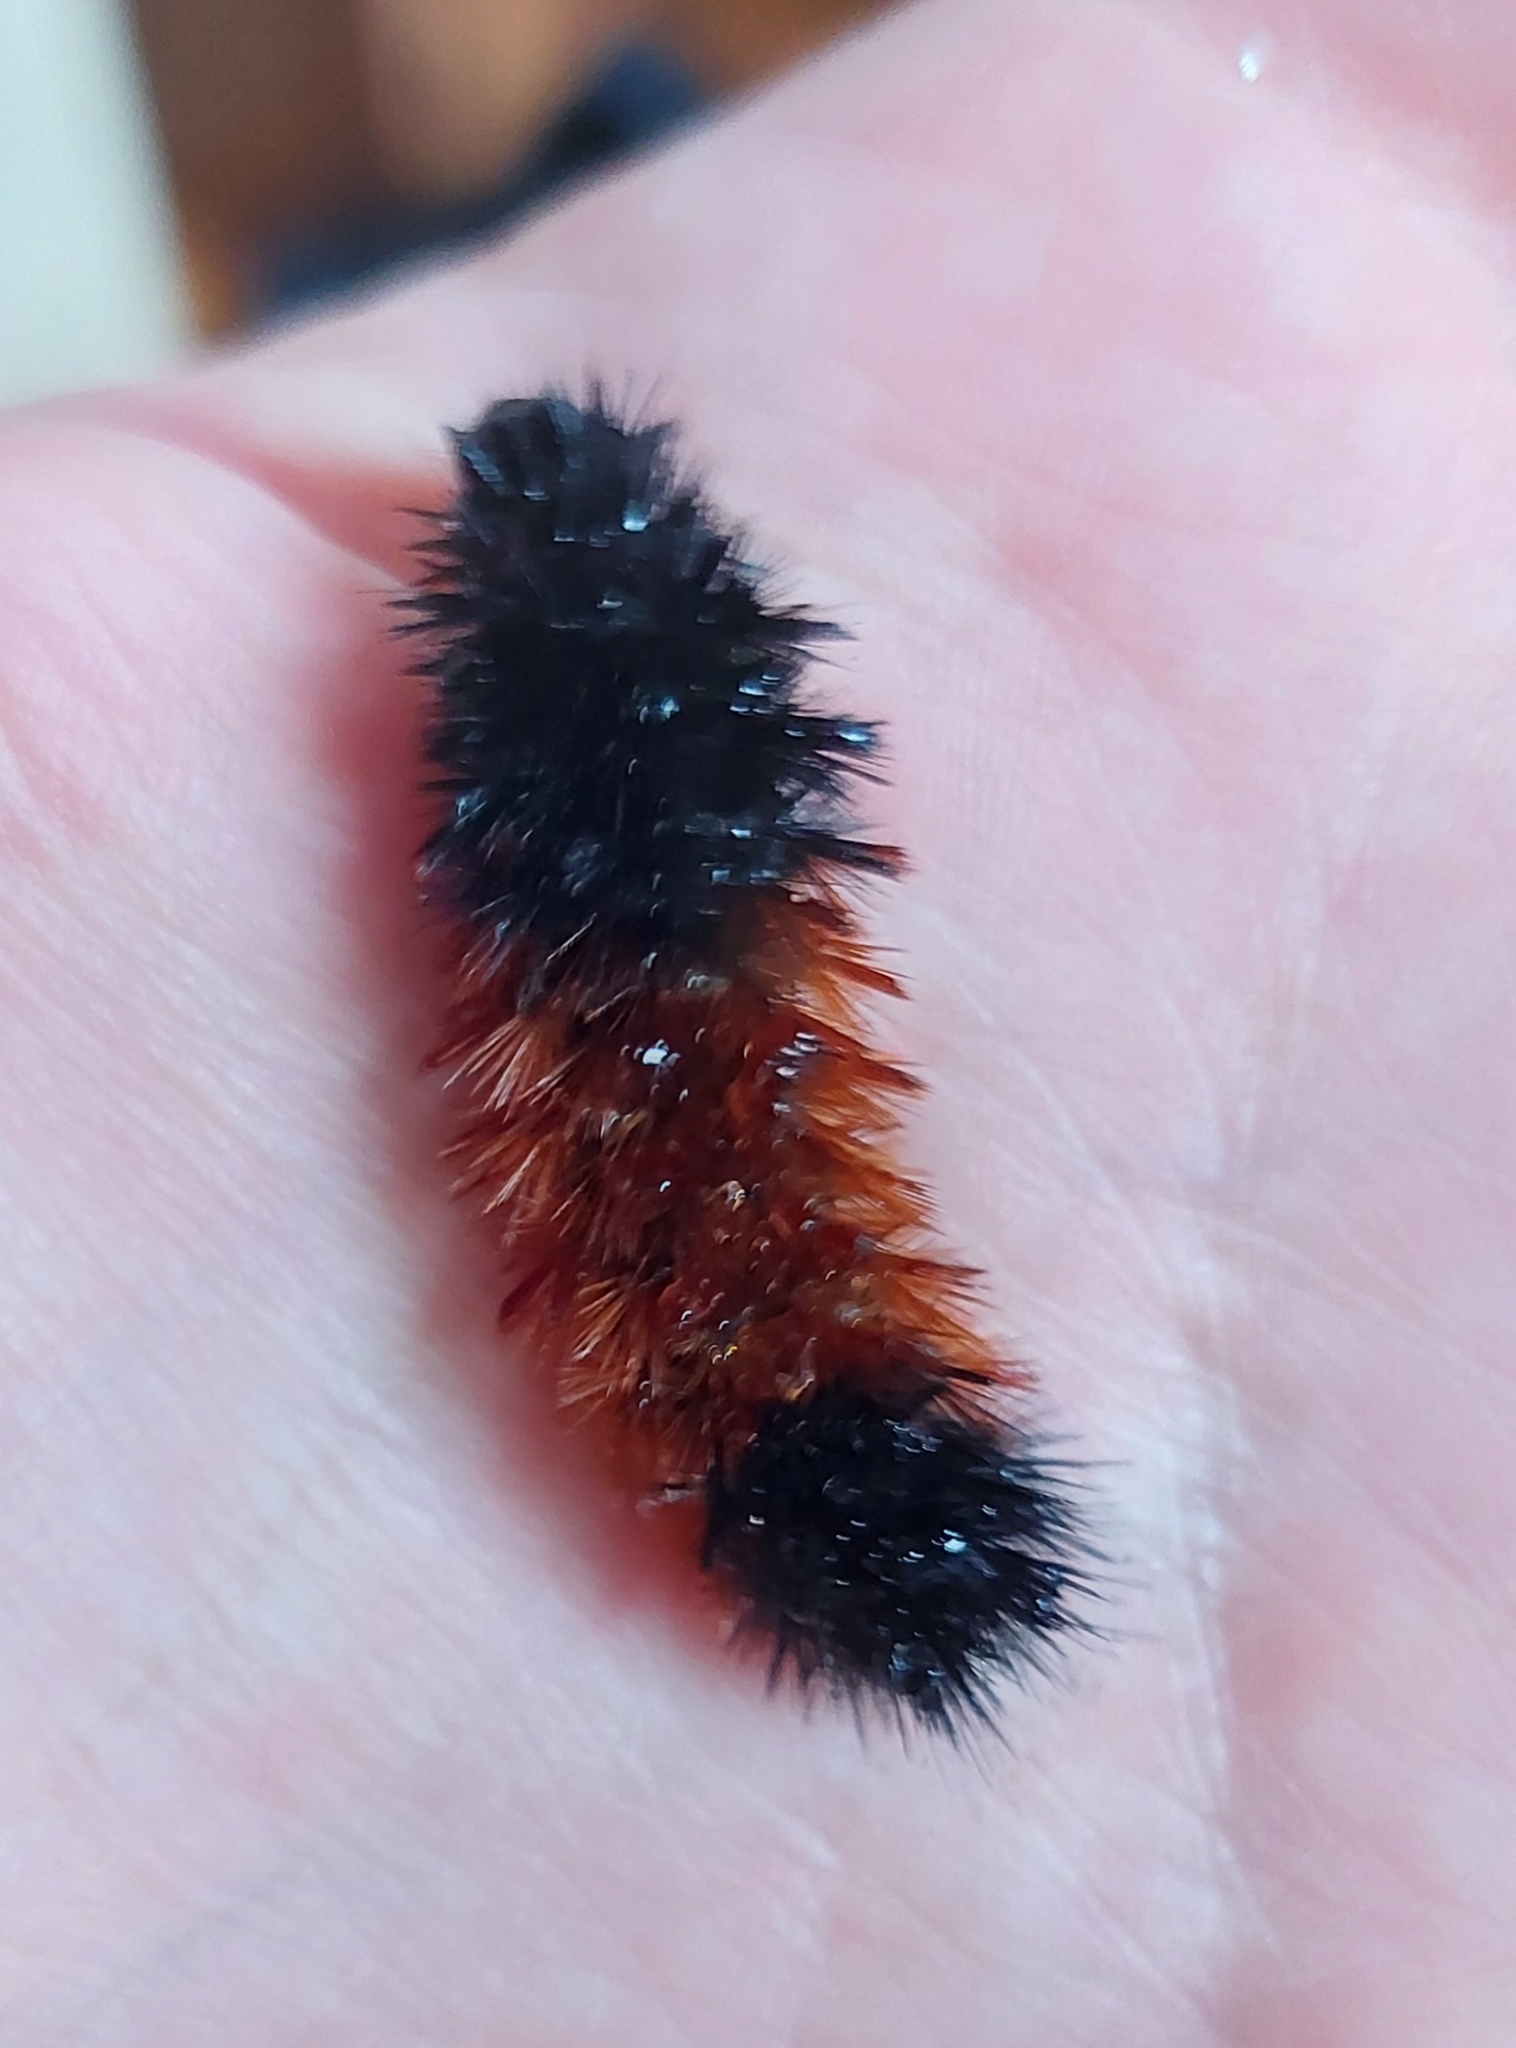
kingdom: Animalia
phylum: Arthropoda
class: Insecta
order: Lepidoptera
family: Erebidae
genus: Pyrrharctia
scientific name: Pyrrharctia isabella
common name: Isabella tiger moth
